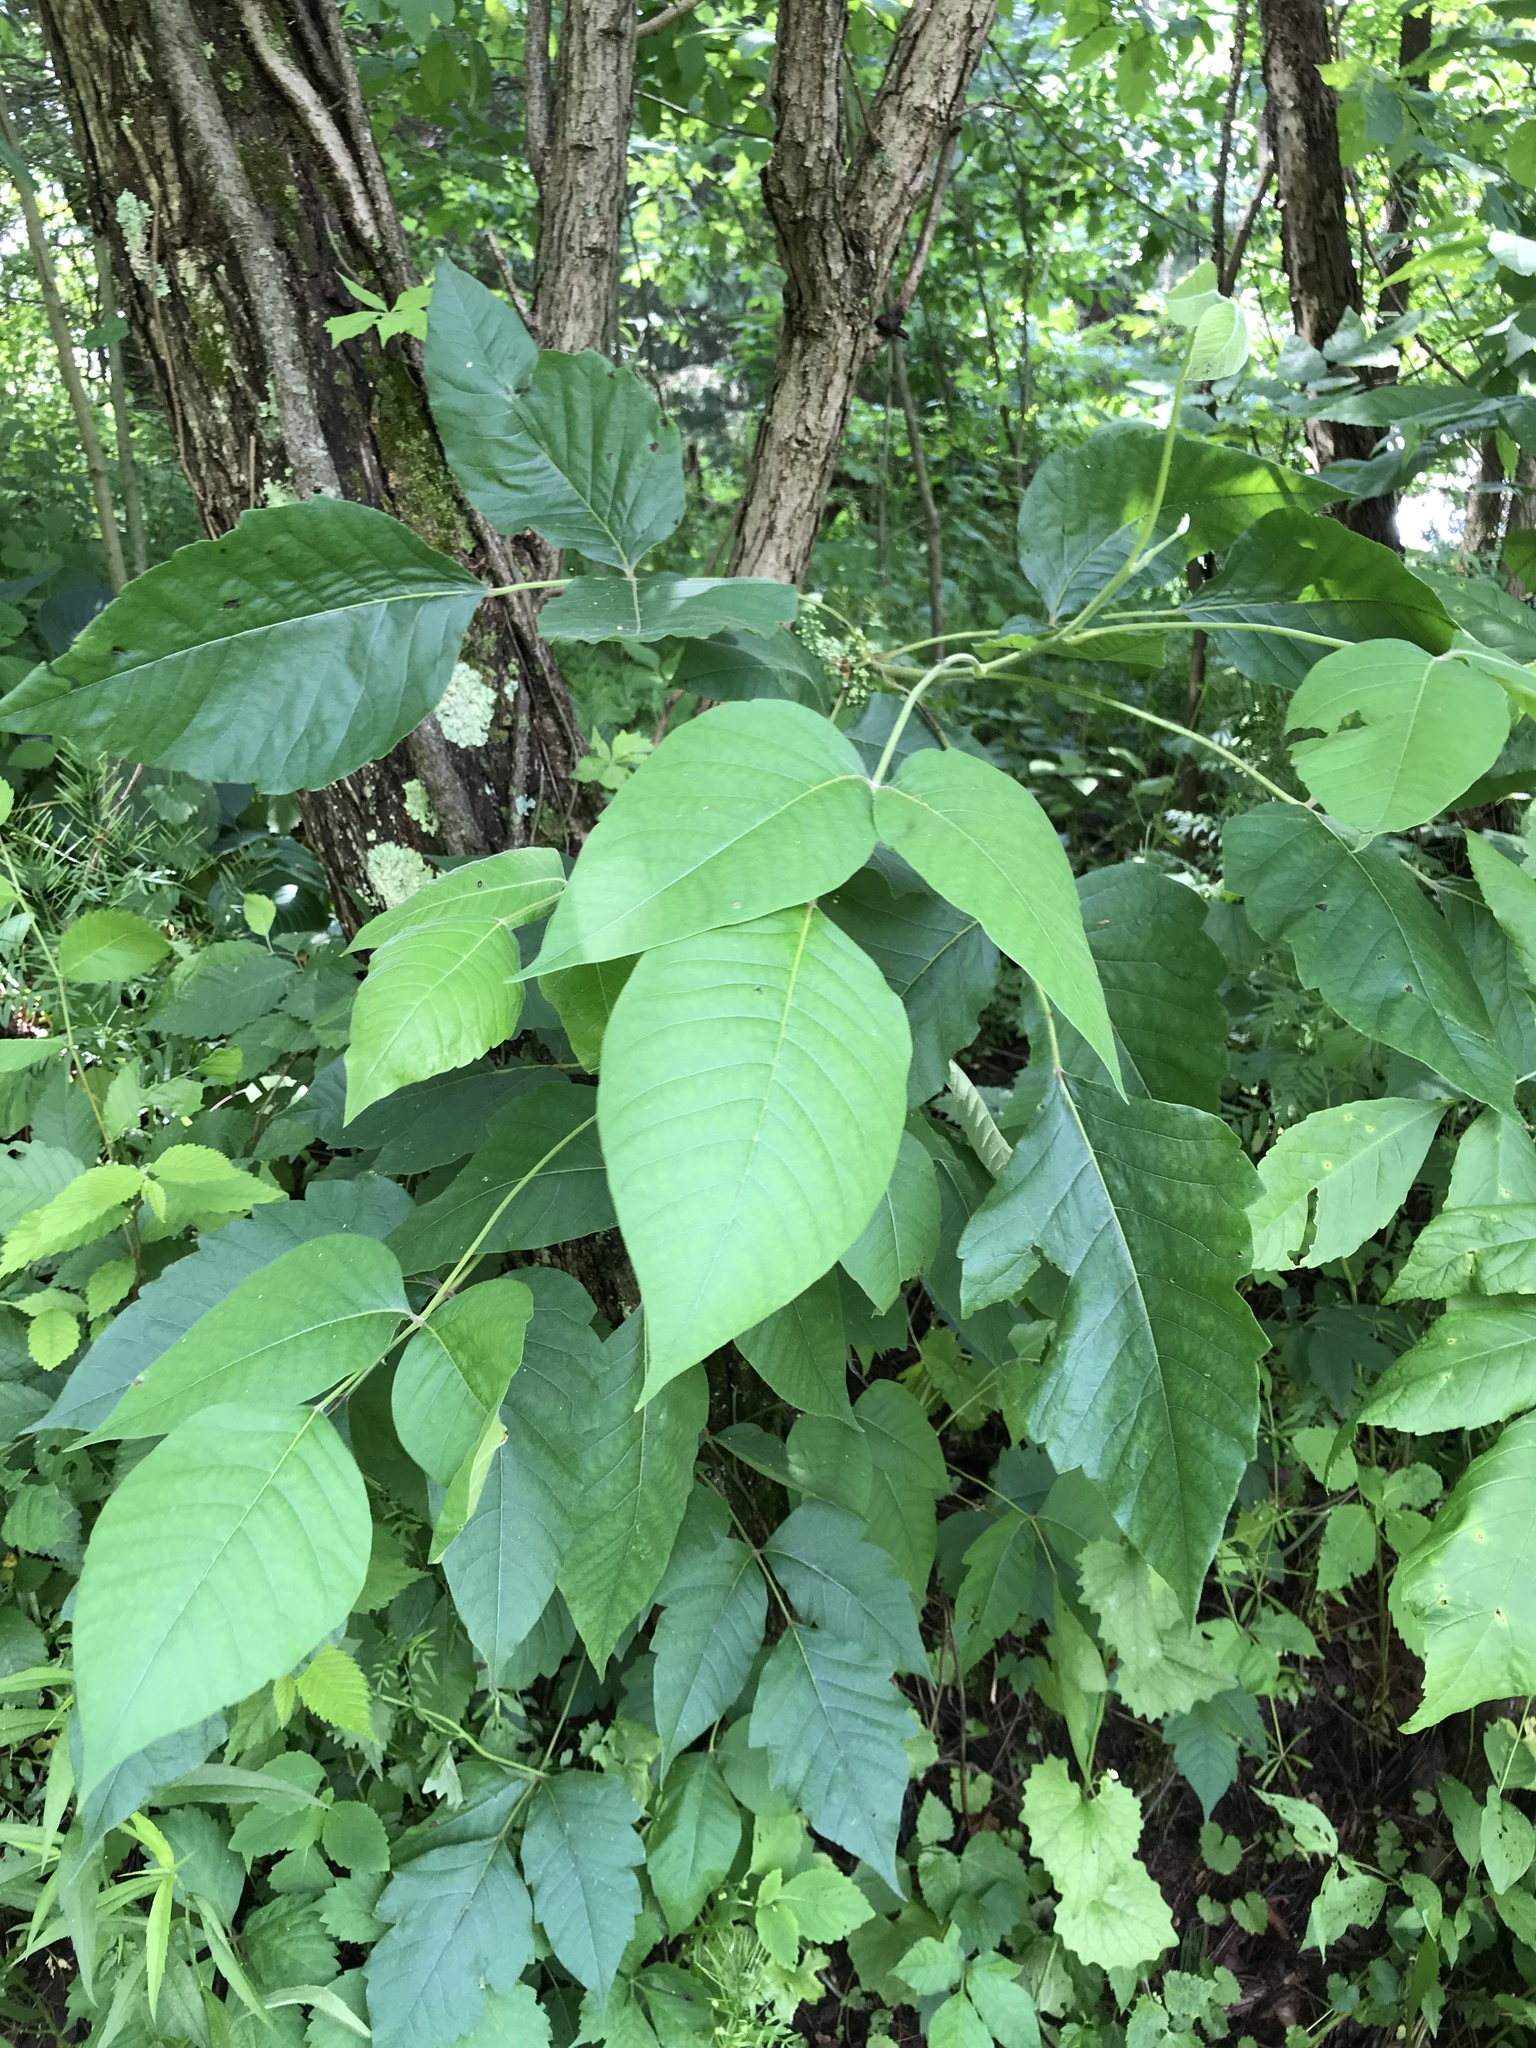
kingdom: Plantae
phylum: Tracheophyta
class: Magnoliopsida
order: Sapindales
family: Anacardiaceae
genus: Toxicodendron
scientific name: Toxicodendron radicans
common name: Poison ivy
